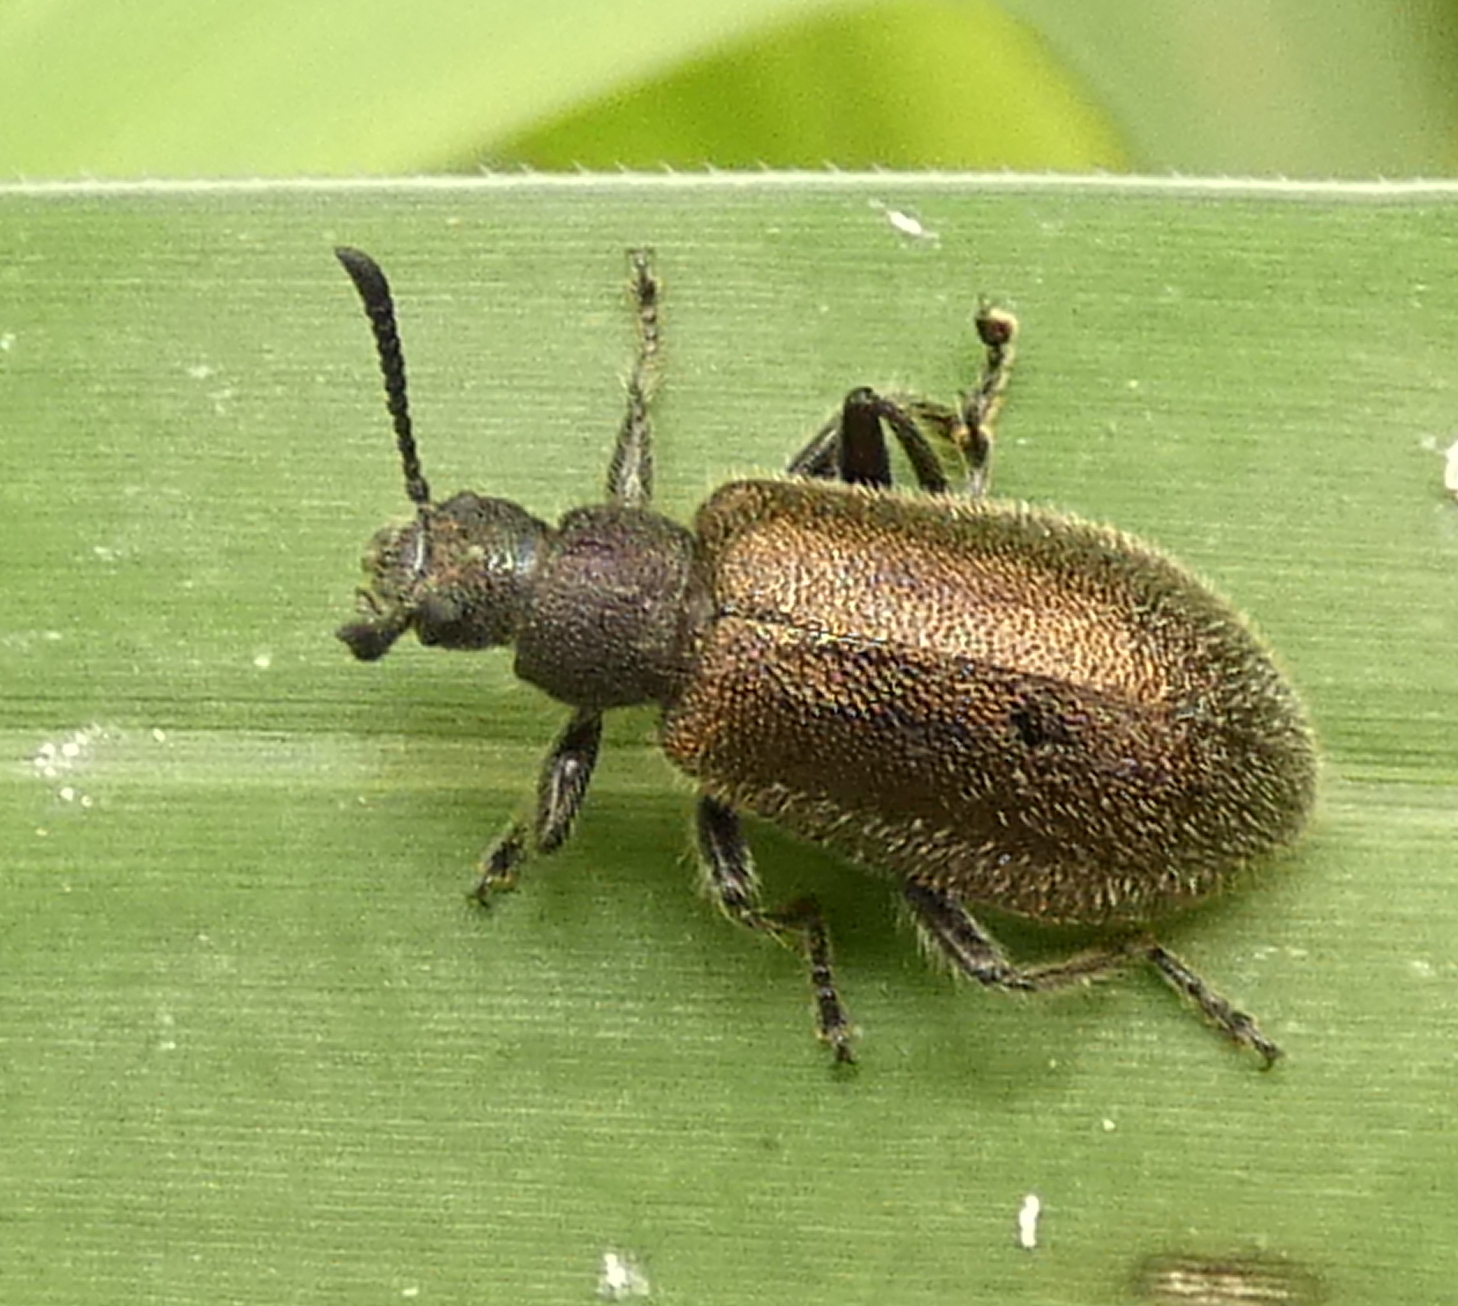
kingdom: Animalia
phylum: Arthropoda
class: Insecta
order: Coleoptera
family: Tenebrionidae
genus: Lagria
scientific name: Lagria villosa
